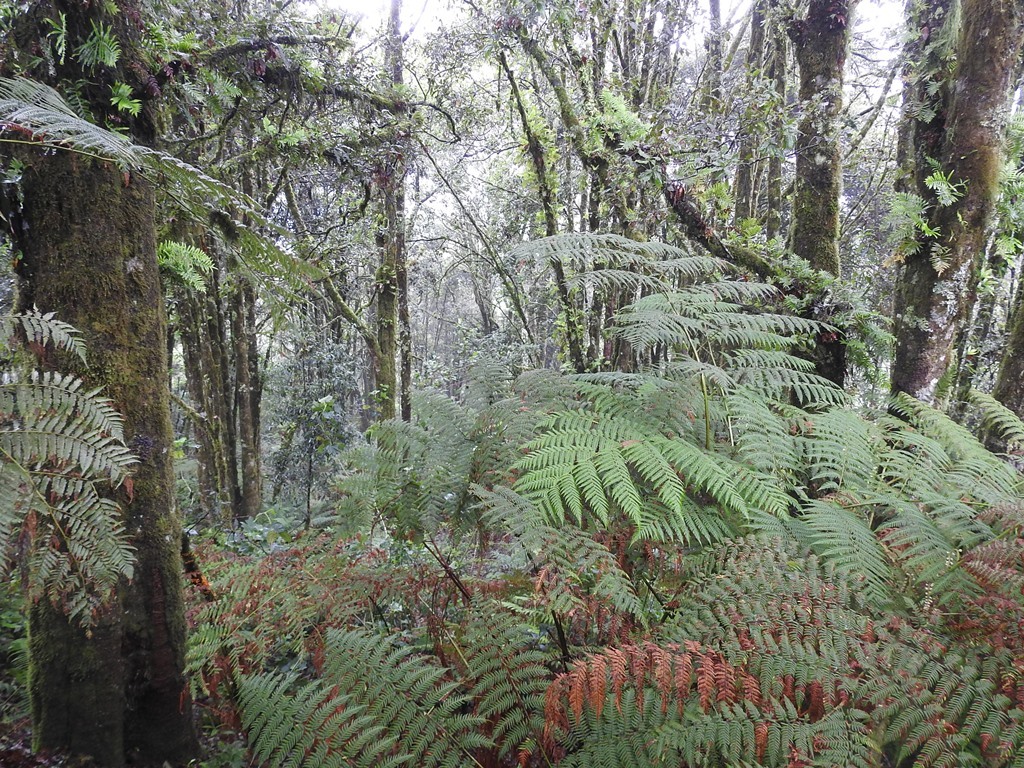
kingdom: Plantae
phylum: Tracheophyta
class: Polypodiopsida
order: Cyatheales
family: Dicksoniaceae
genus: Lophosoria
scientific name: Lophosoria quadripinnata
